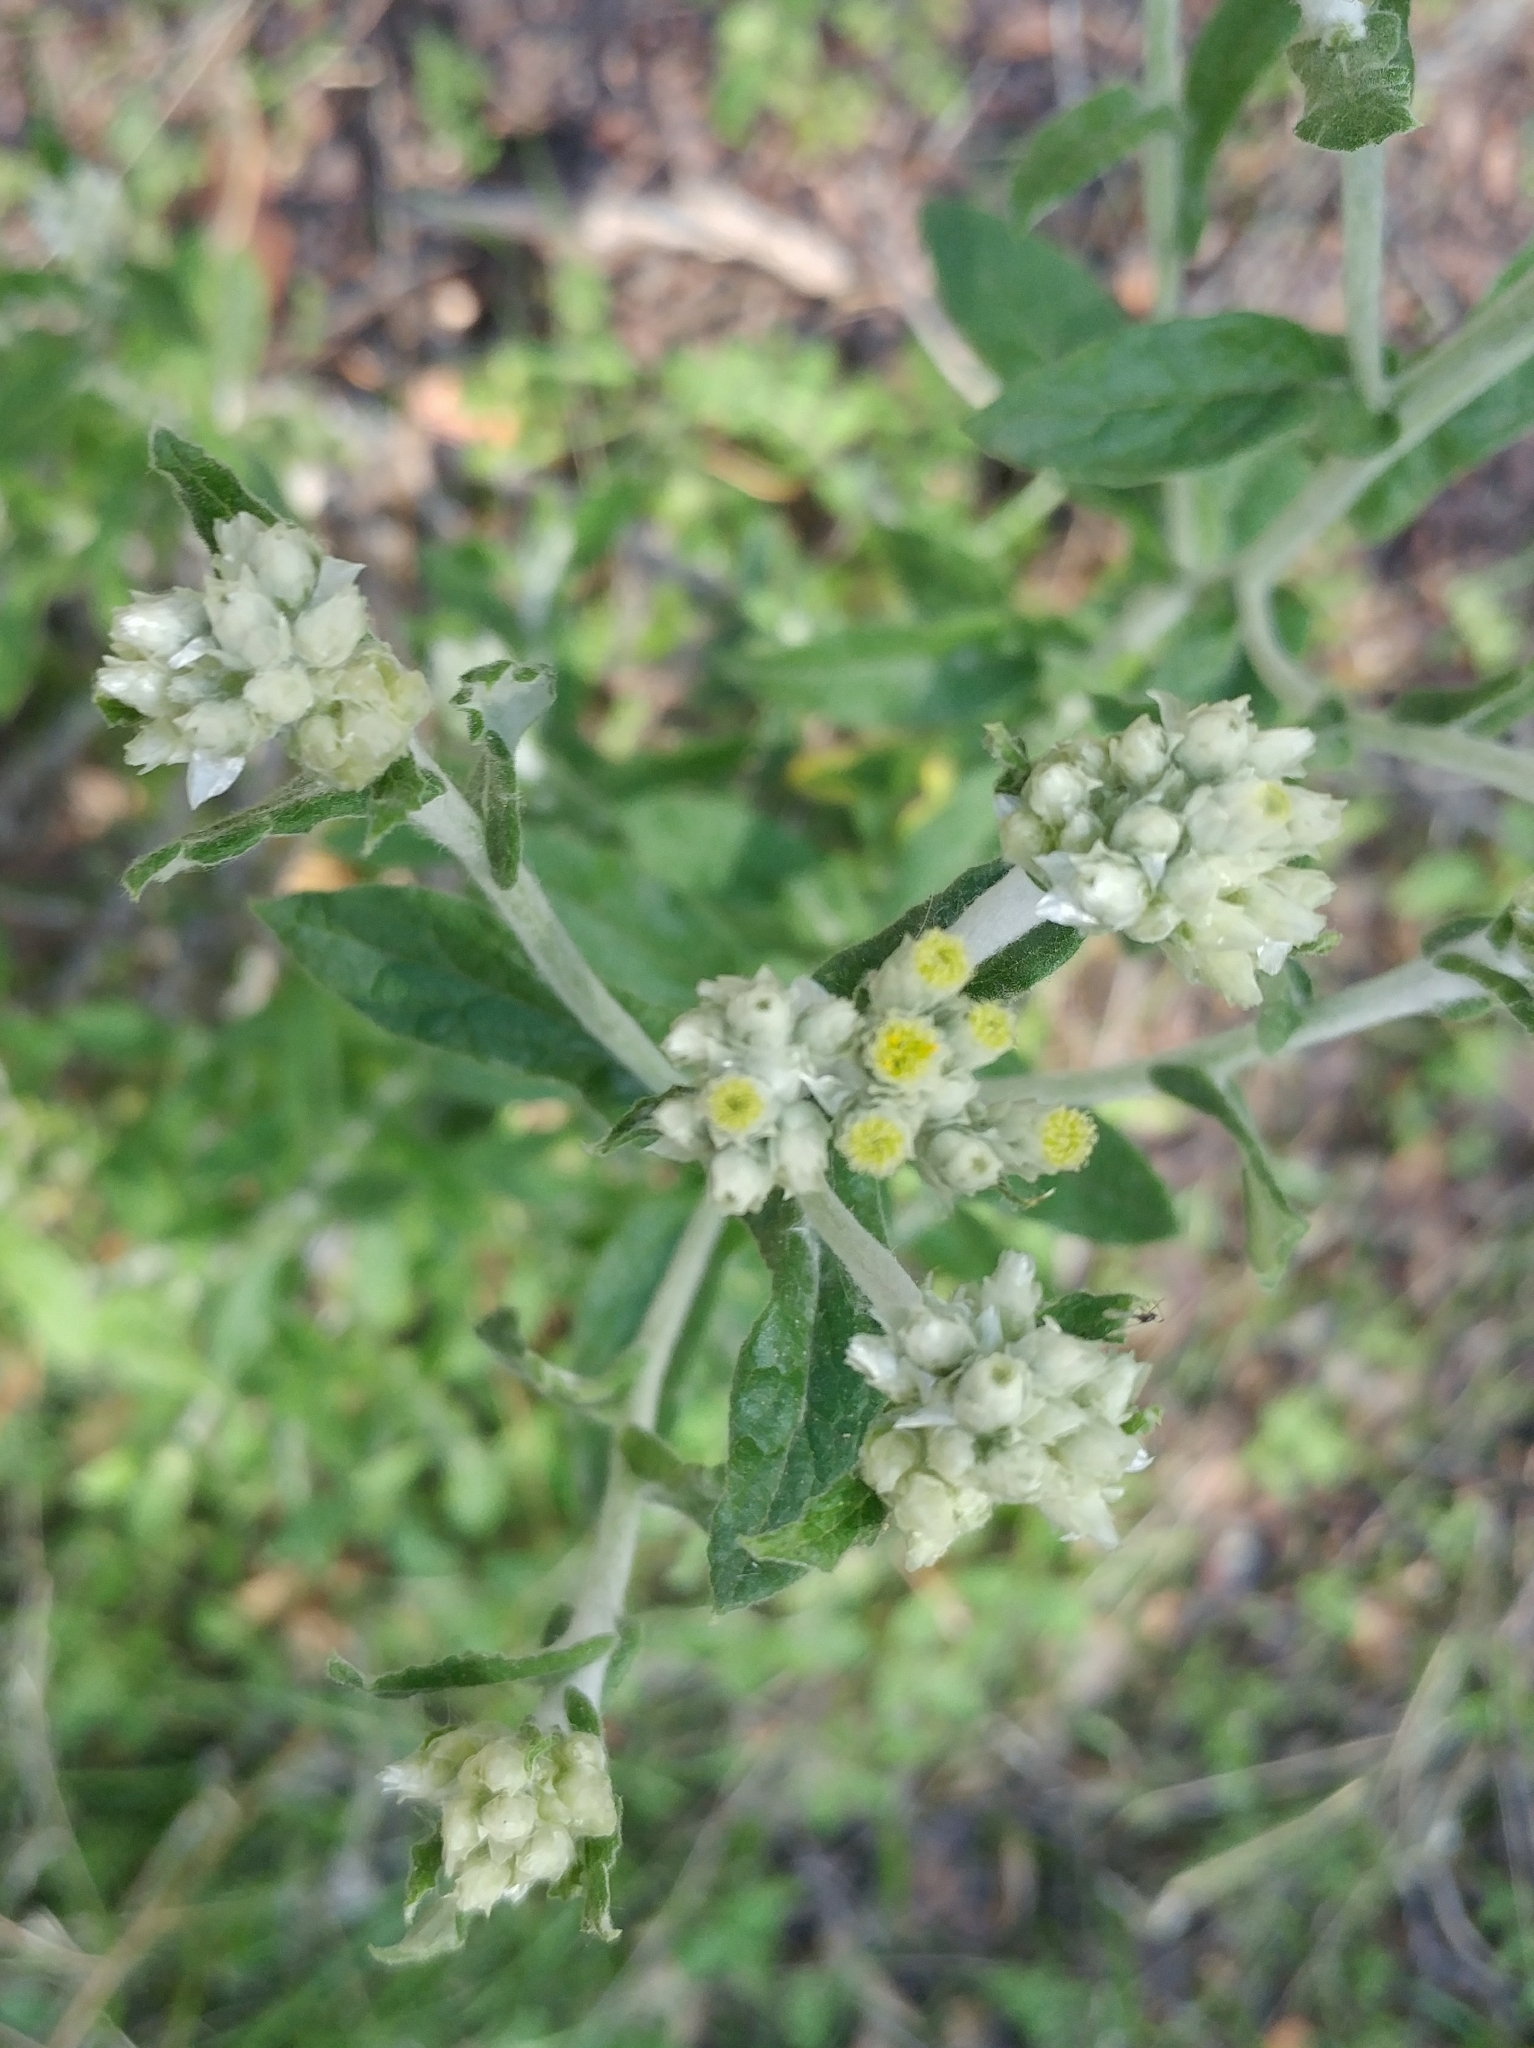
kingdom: Plantae
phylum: Tracheophyta
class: Magnoliopsida
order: Asterales
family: Asteraceae
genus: Pseudognaphalium
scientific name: Pseudognaphalium biolettii
